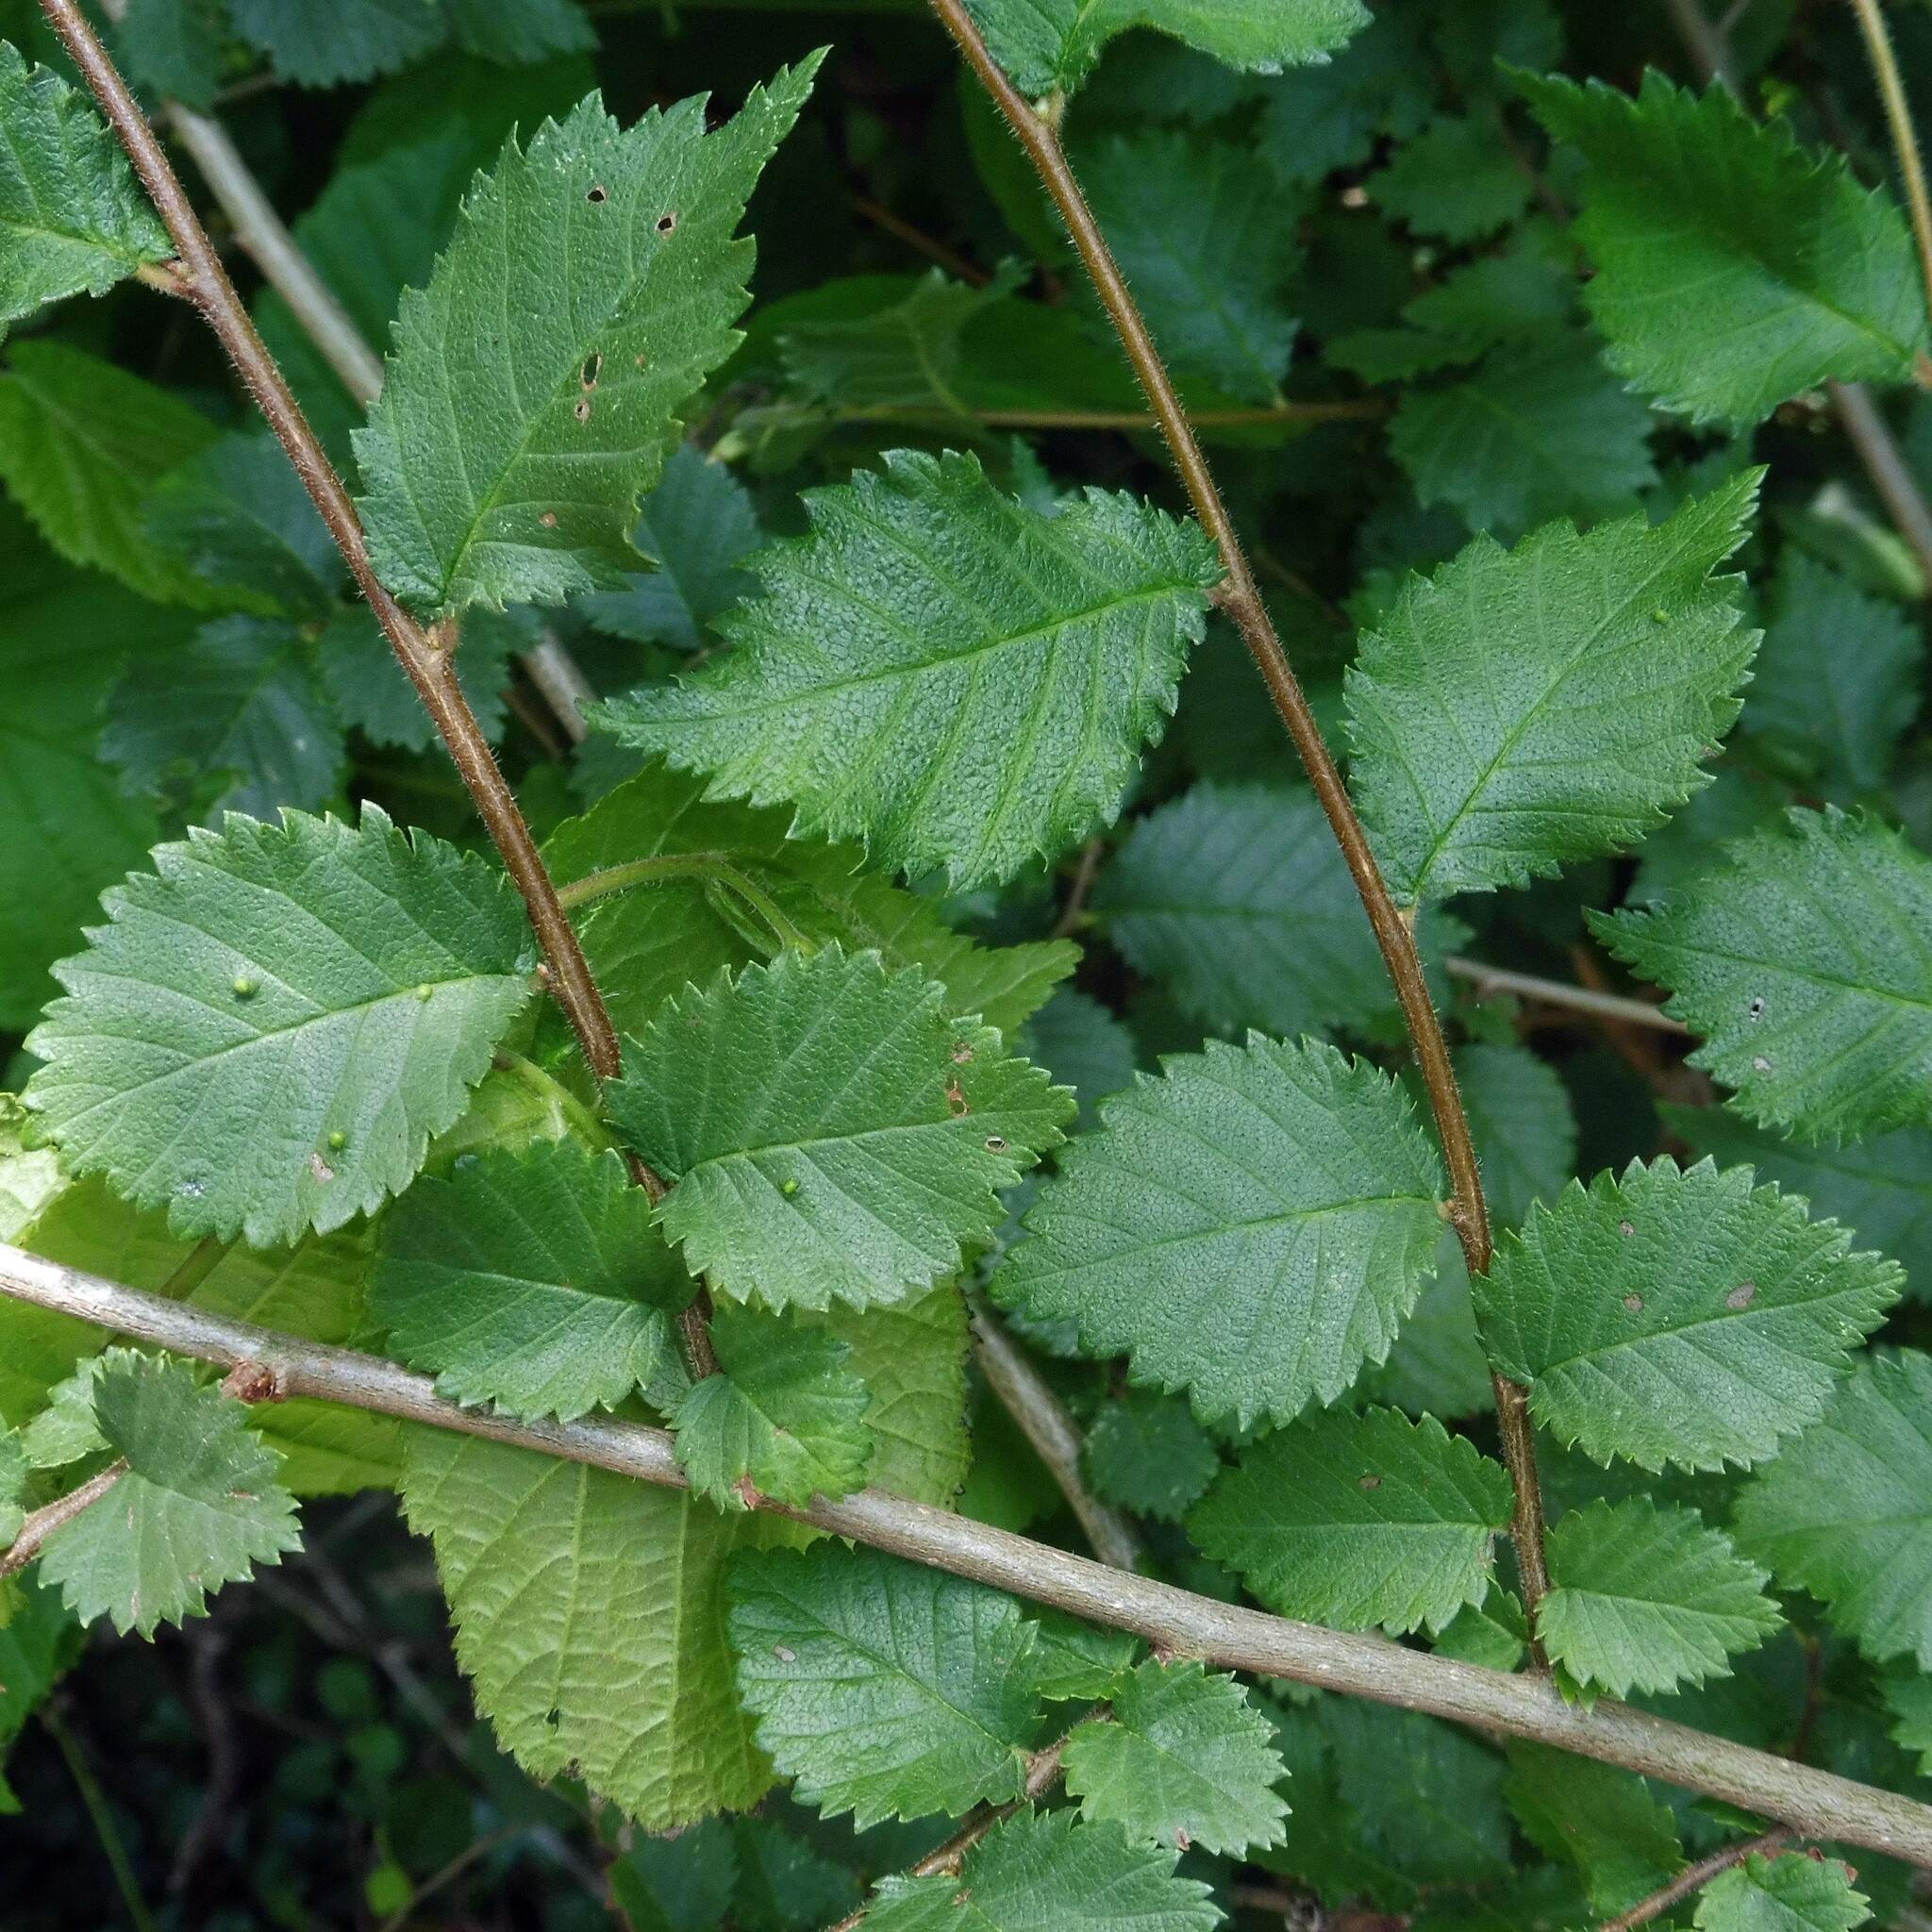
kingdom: Plantae
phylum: Tracheophyta
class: Magnoliopsida
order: Rosales
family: Ulmaceae
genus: Ulmus
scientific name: Ulmus minor
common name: Small-leaved elm
